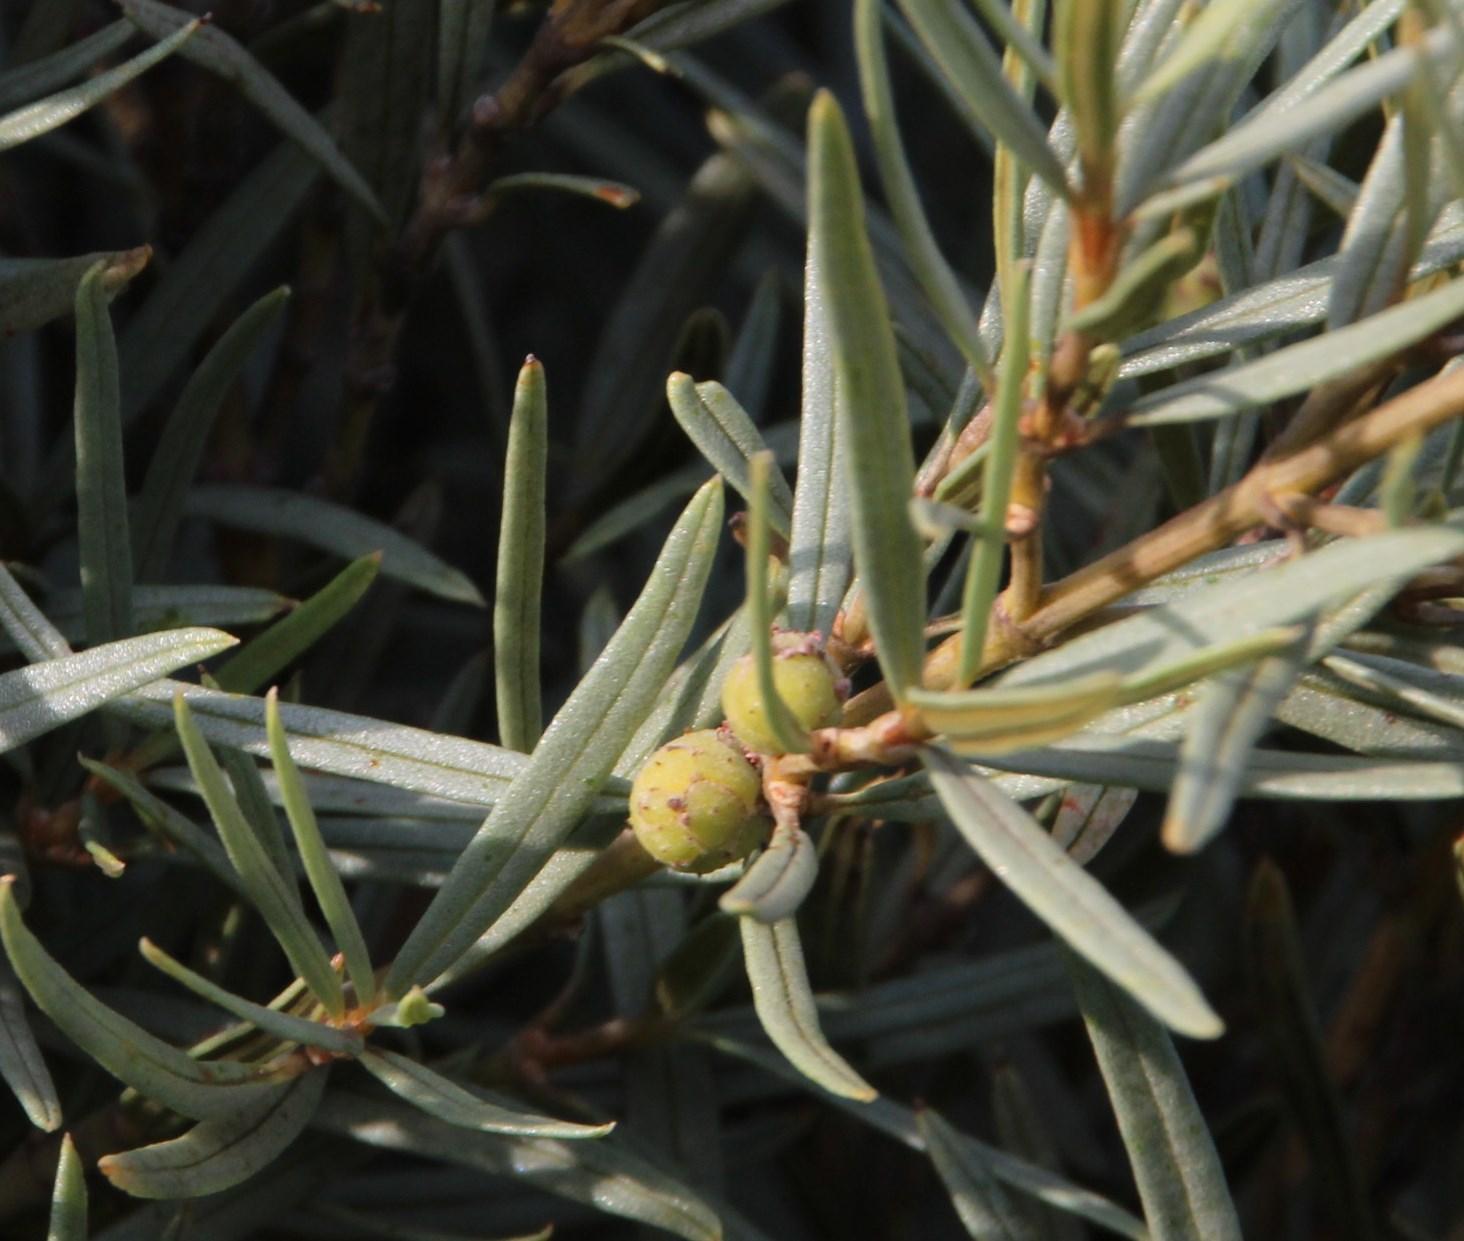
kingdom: Plantae
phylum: Tracheophyta
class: Magnoliopsida
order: Cornales
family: Grubbiaceae
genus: Grubbia
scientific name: Grubbia tomentosa
